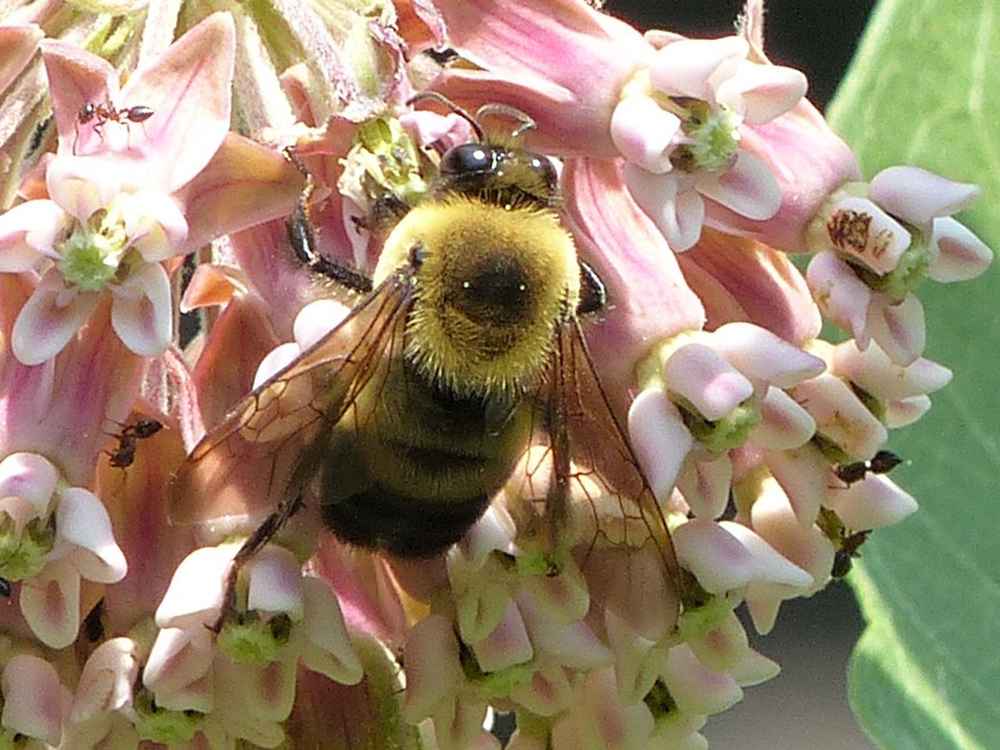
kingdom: Animalia
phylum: Arthropoda
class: Insecta
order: Hymenoptera
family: Apidae
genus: Bombus
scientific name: Bombus griseocollis
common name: Brown-belted bumble bee
